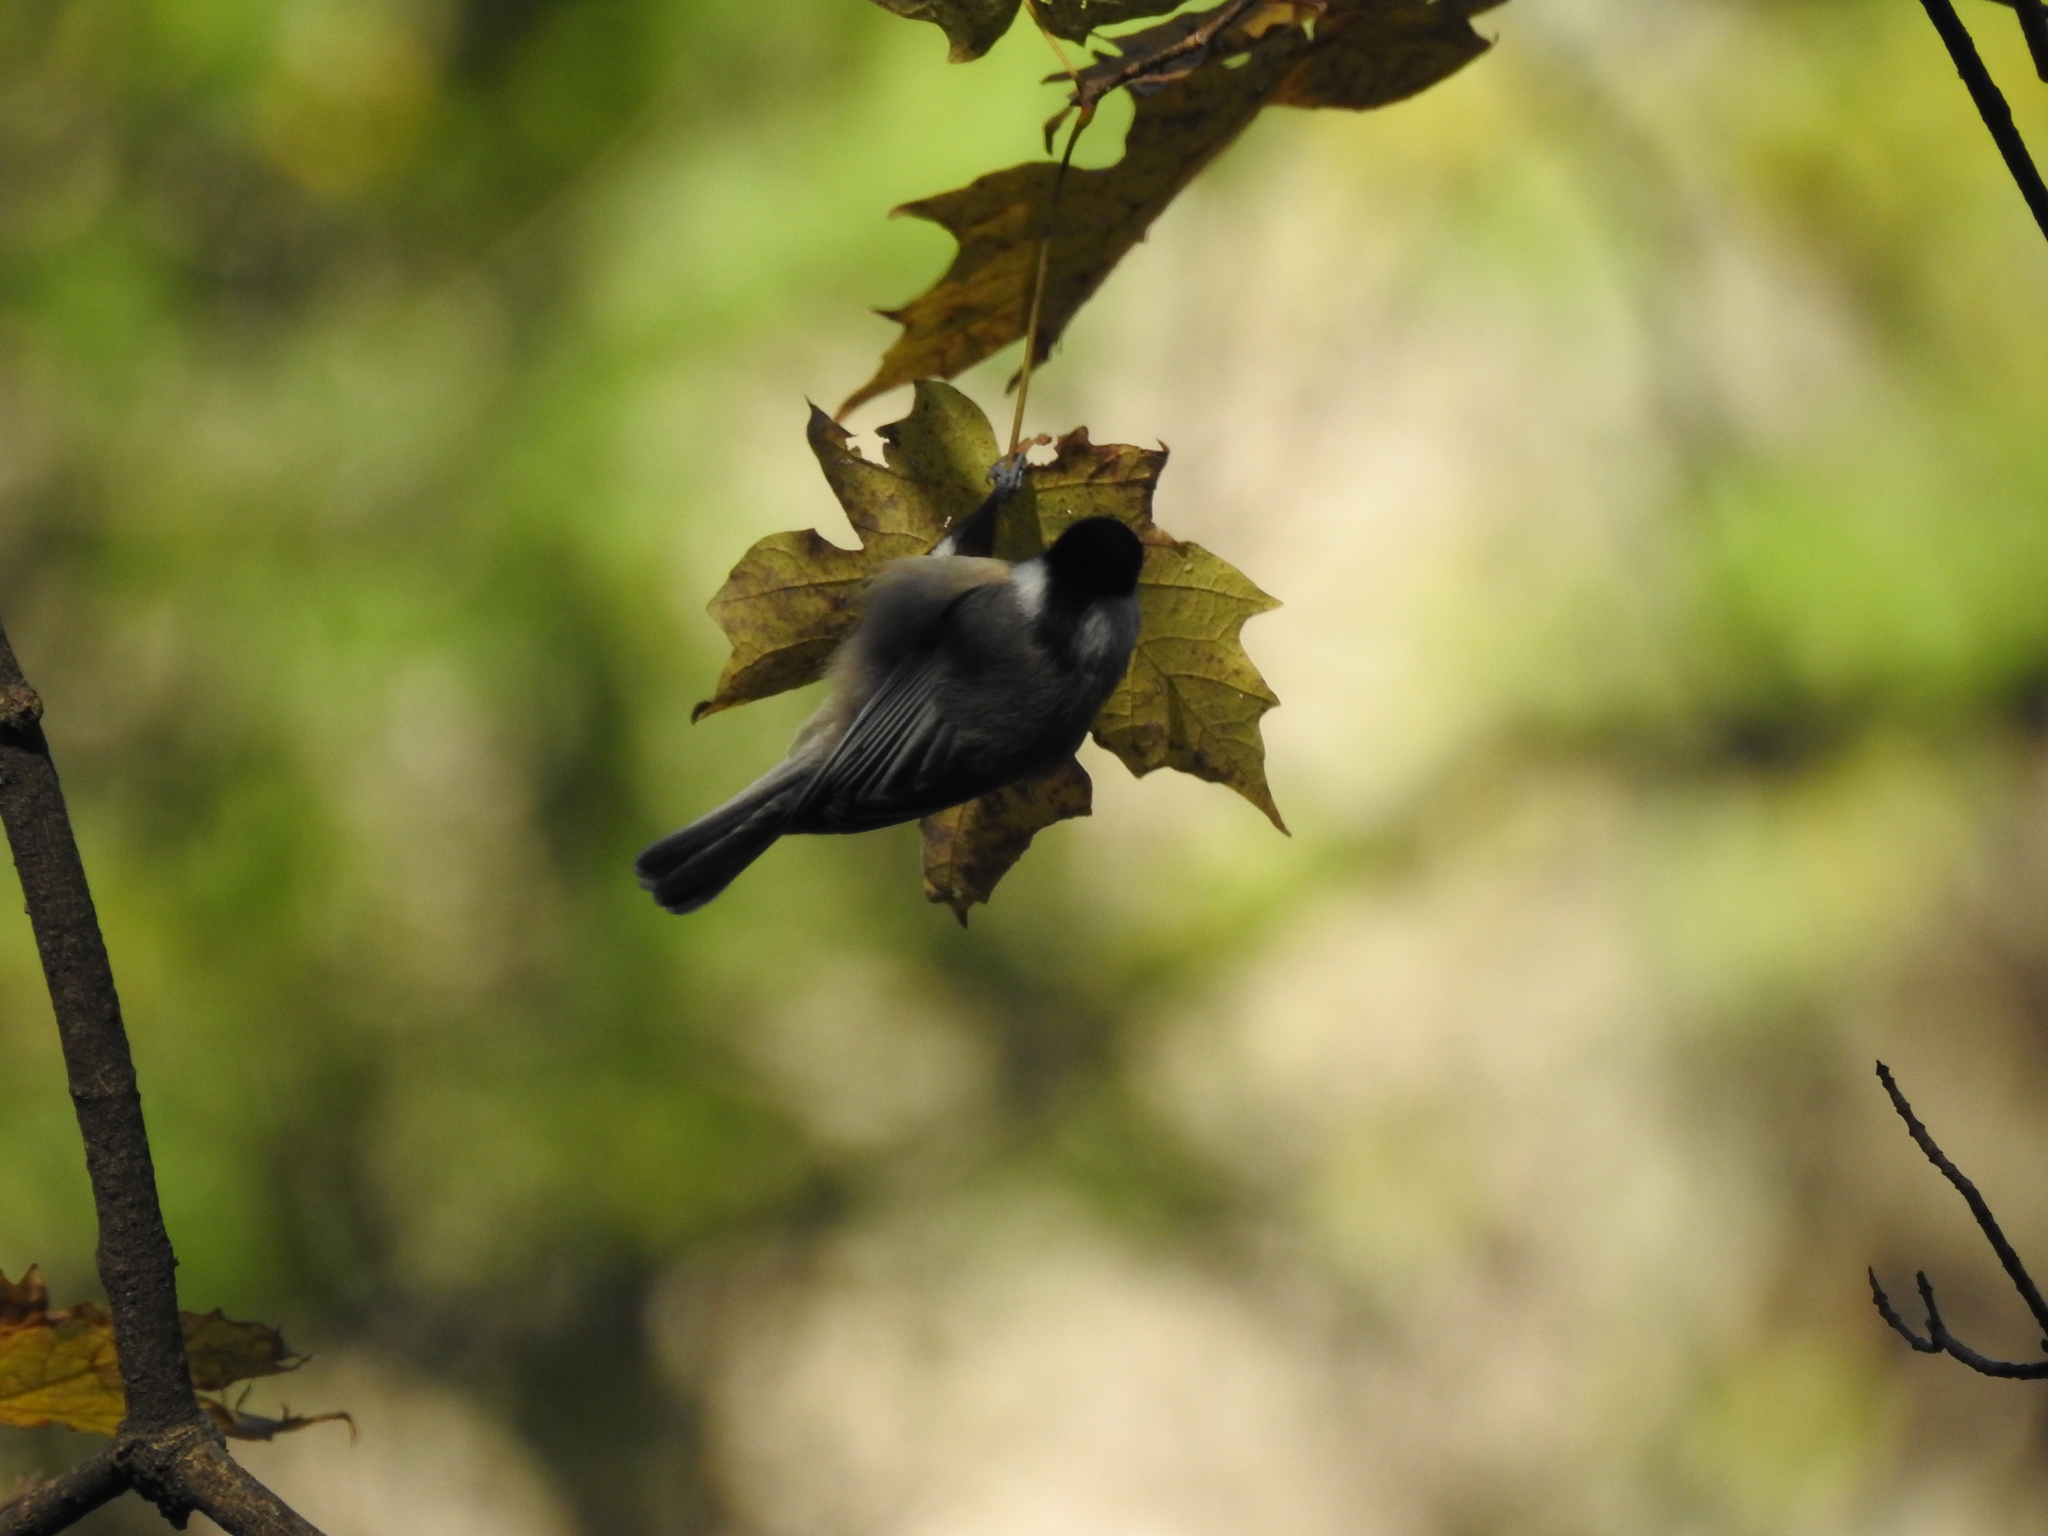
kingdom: Animalia
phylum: Chordata
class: Aves
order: Passeriformes
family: Paridae
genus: Poecile
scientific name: Poecile carolinensis
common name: Carolina chickadee
